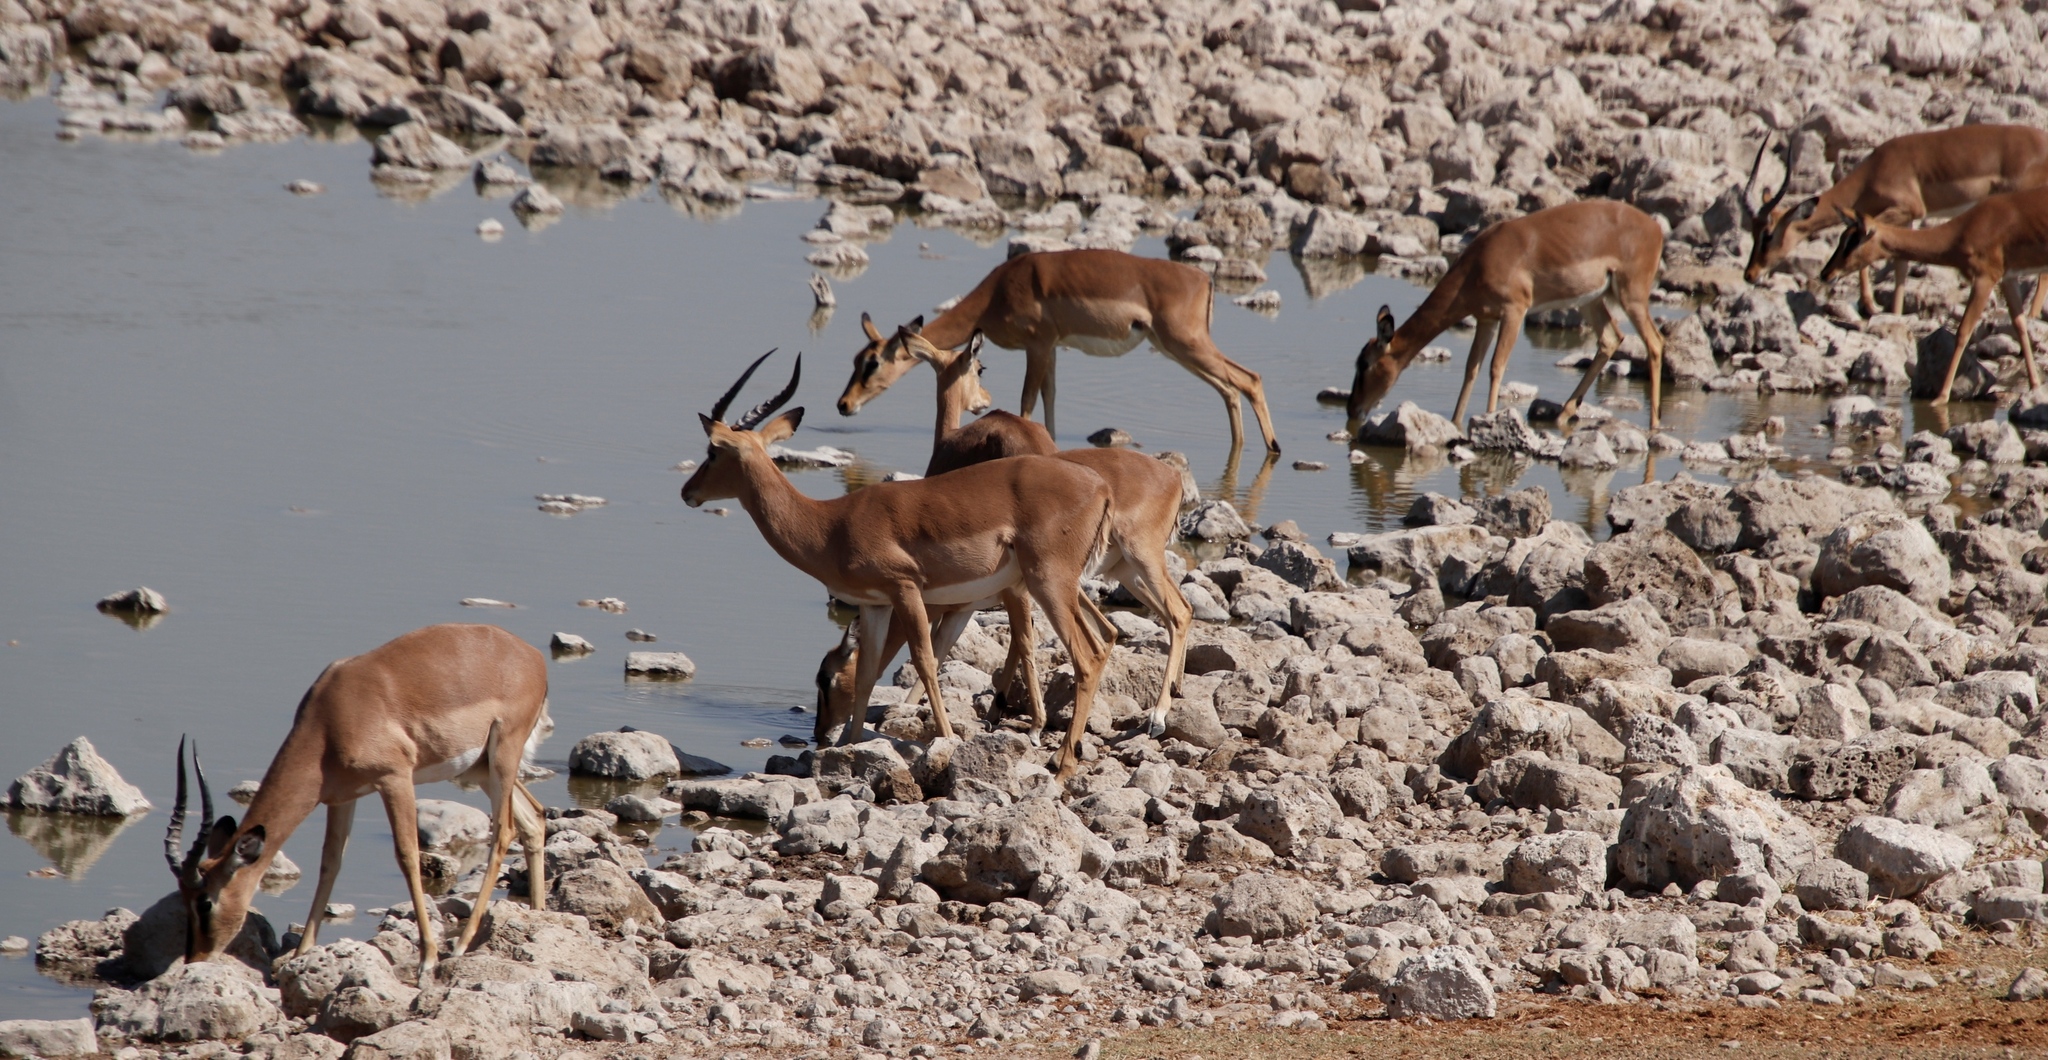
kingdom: Animalia
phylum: Chordata
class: Mammalia
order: Artiodactyla
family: Bovidae
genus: Aepyceros
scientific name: Aepyceros melampus
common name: Impala
